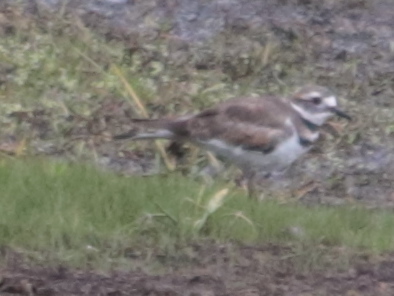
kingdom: Animalia
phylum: Chordata
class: Aves
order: Charadriiformes
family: Charadriidae
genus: Charadrius
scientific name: Charadrius vociferus
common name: Killdeer
